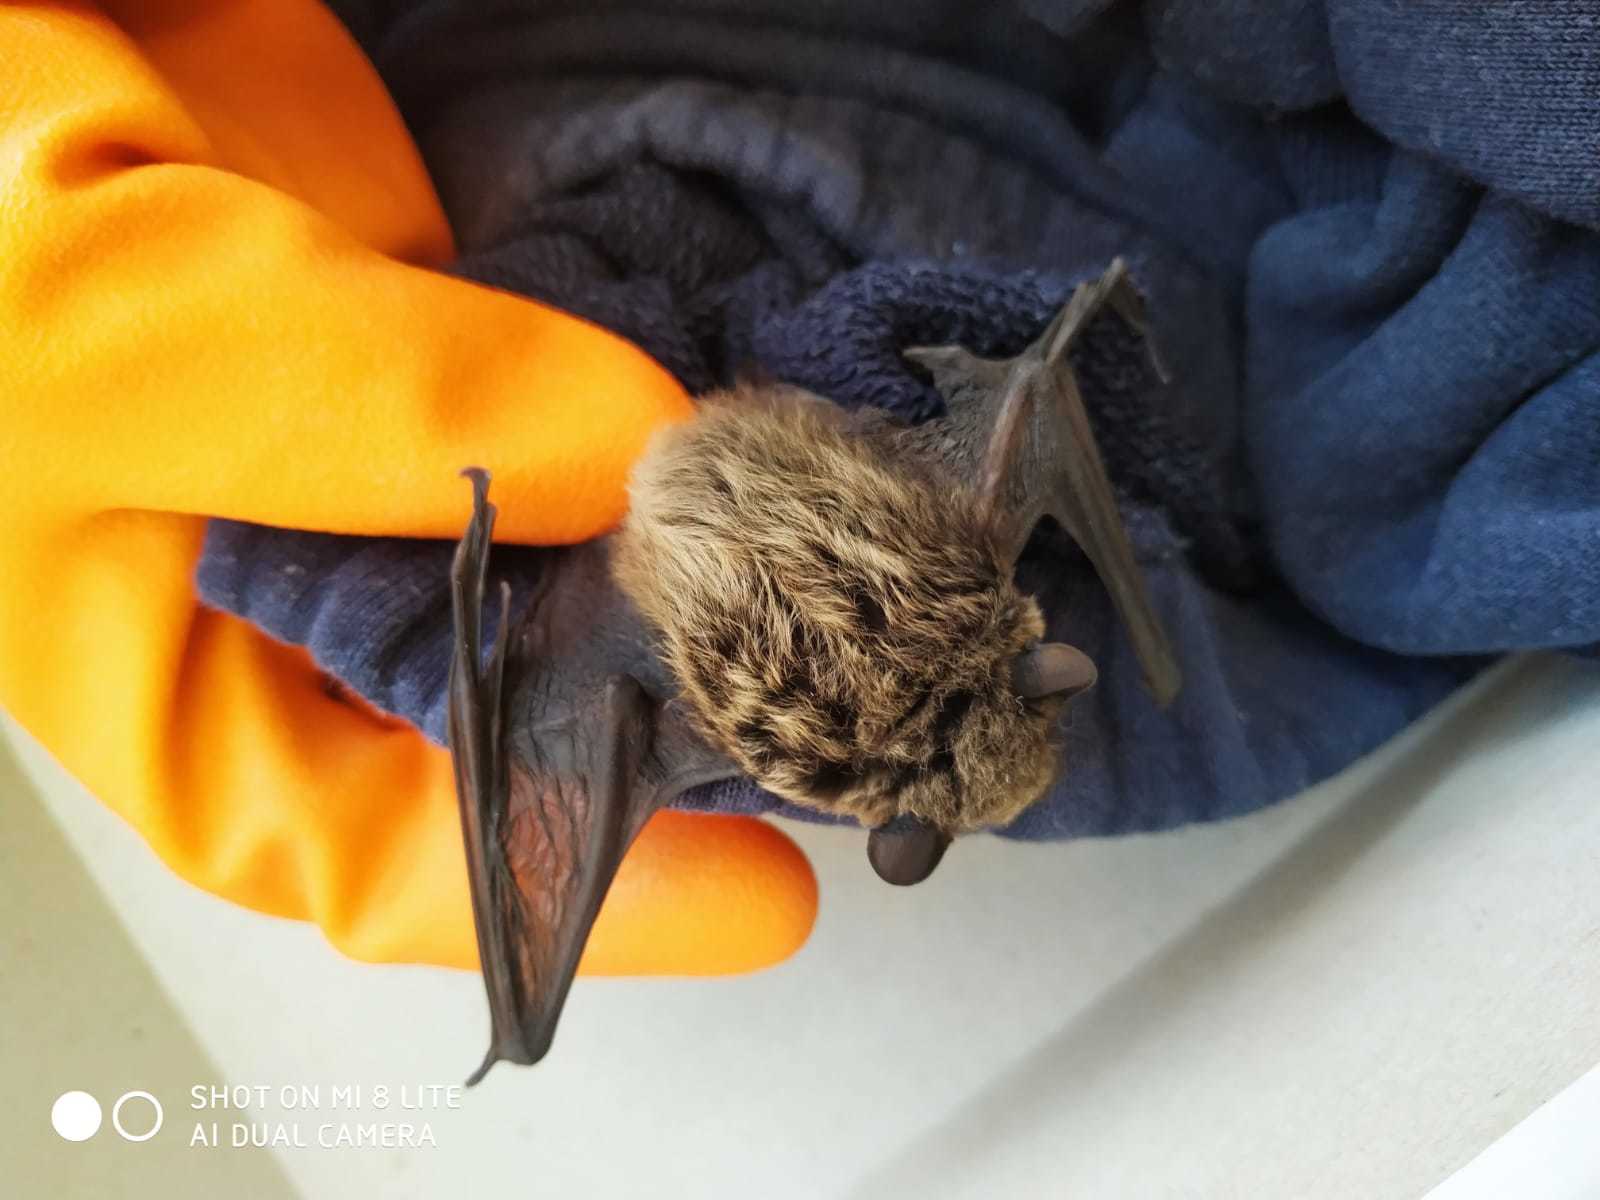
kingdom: Animalia
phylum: Chordata
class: Mammalia
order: Chiroptera
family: Vespertilionidae
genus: Hypsugo
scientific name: Hypsugo savii
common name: Savi's pipistrelle
